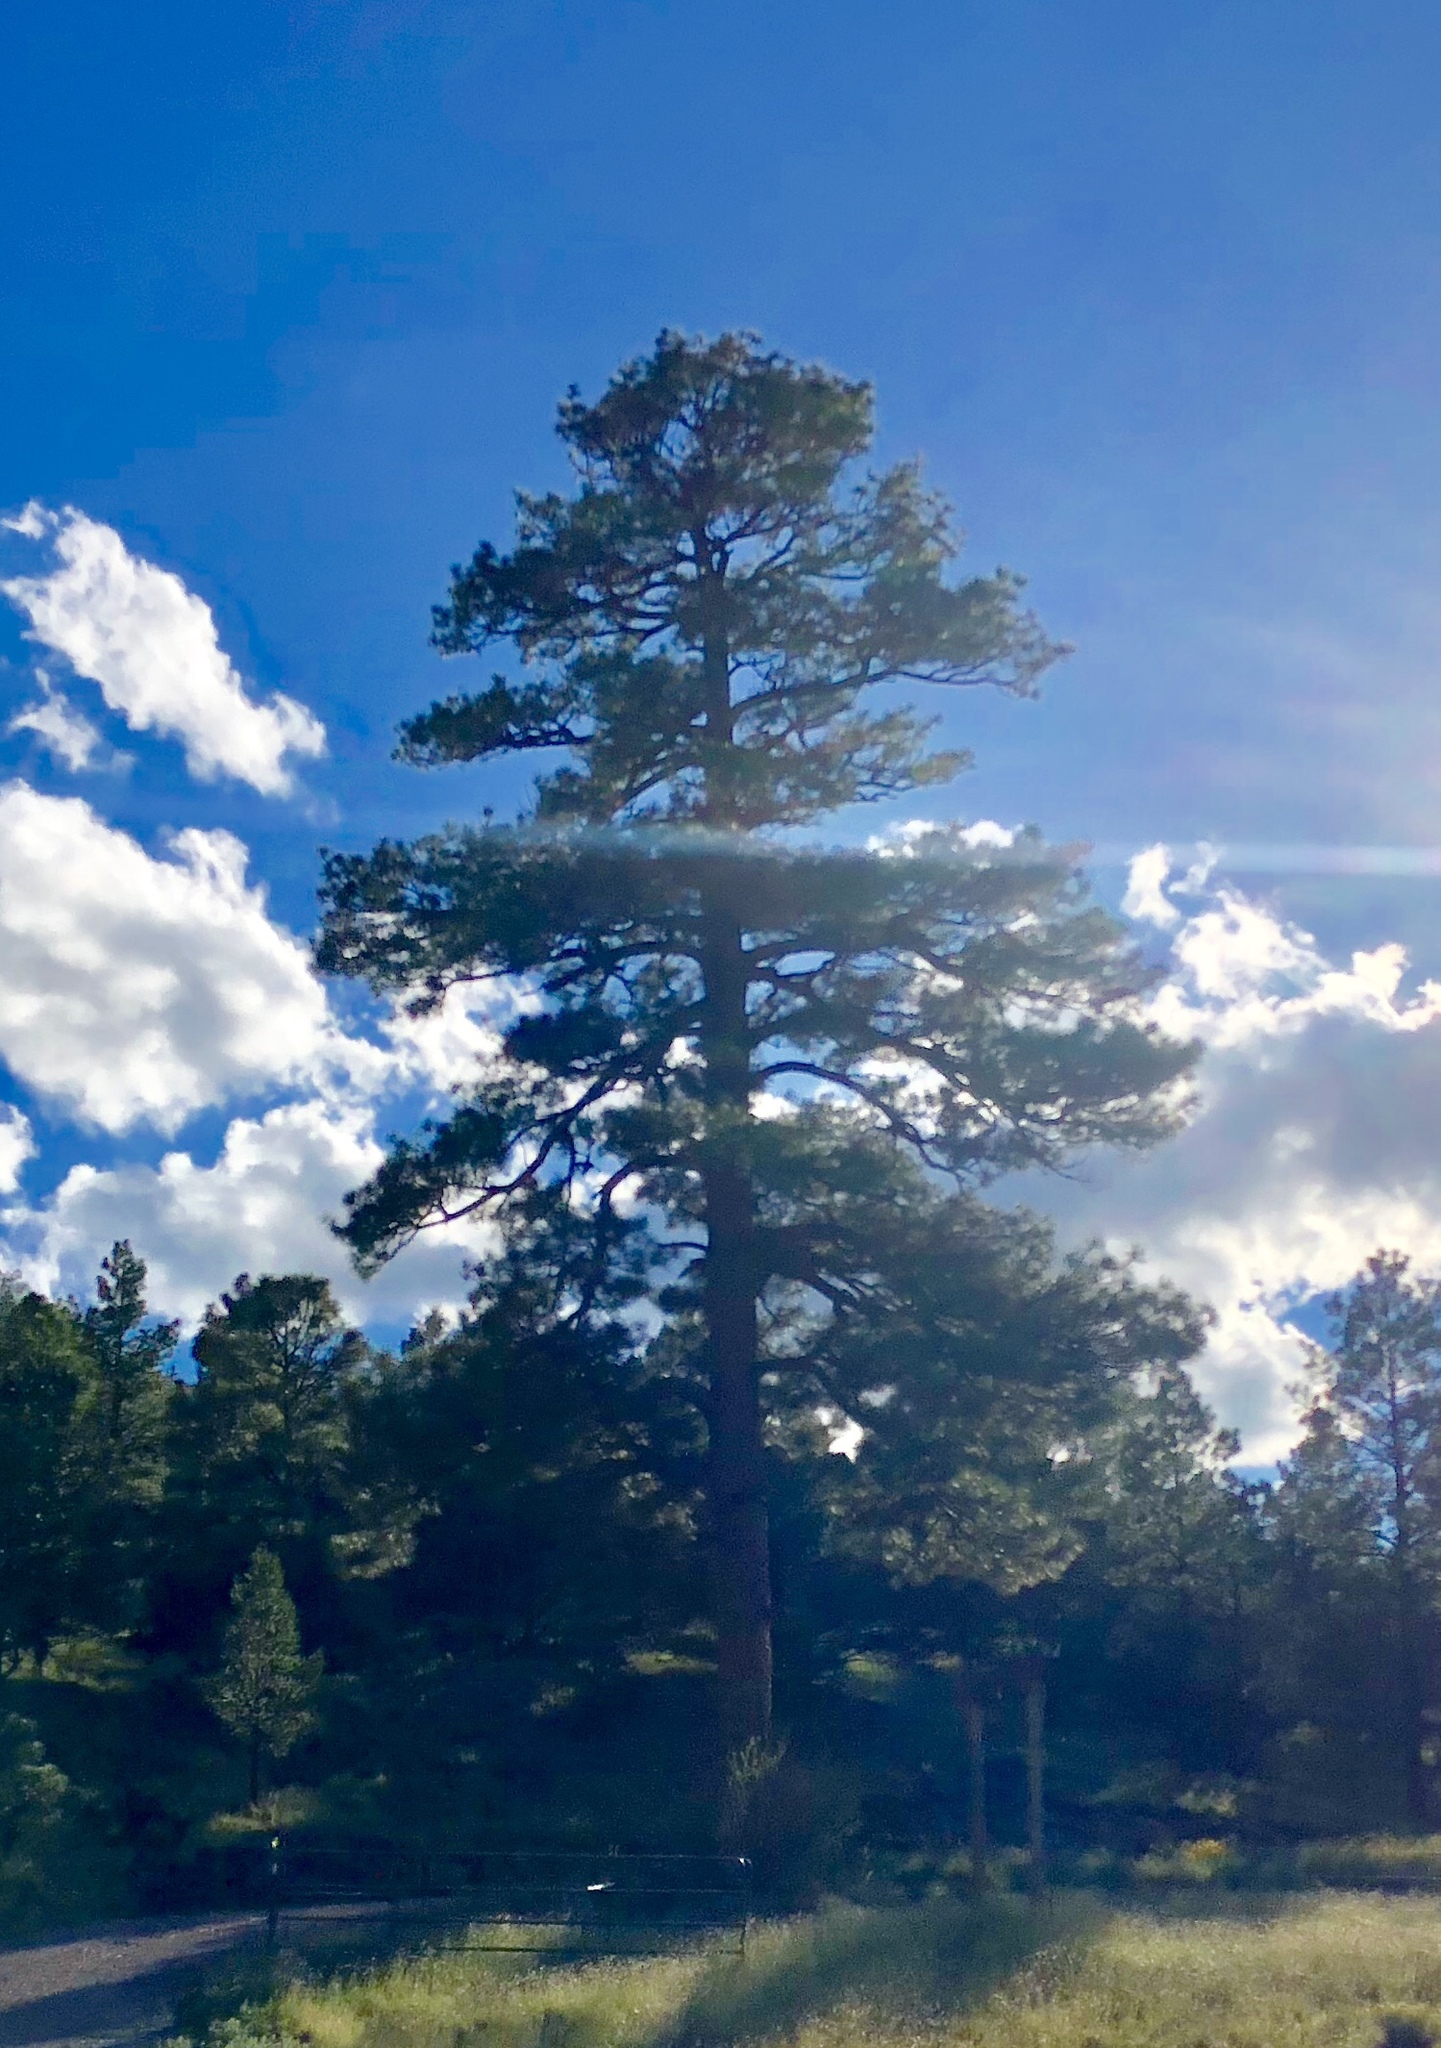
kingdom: Plantae
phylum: Tracheophyta
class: Pinopsida
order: Pinales
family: Pinaceae
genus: Pinus
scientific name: Pinus ponderosa
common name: Western yellow-pine
